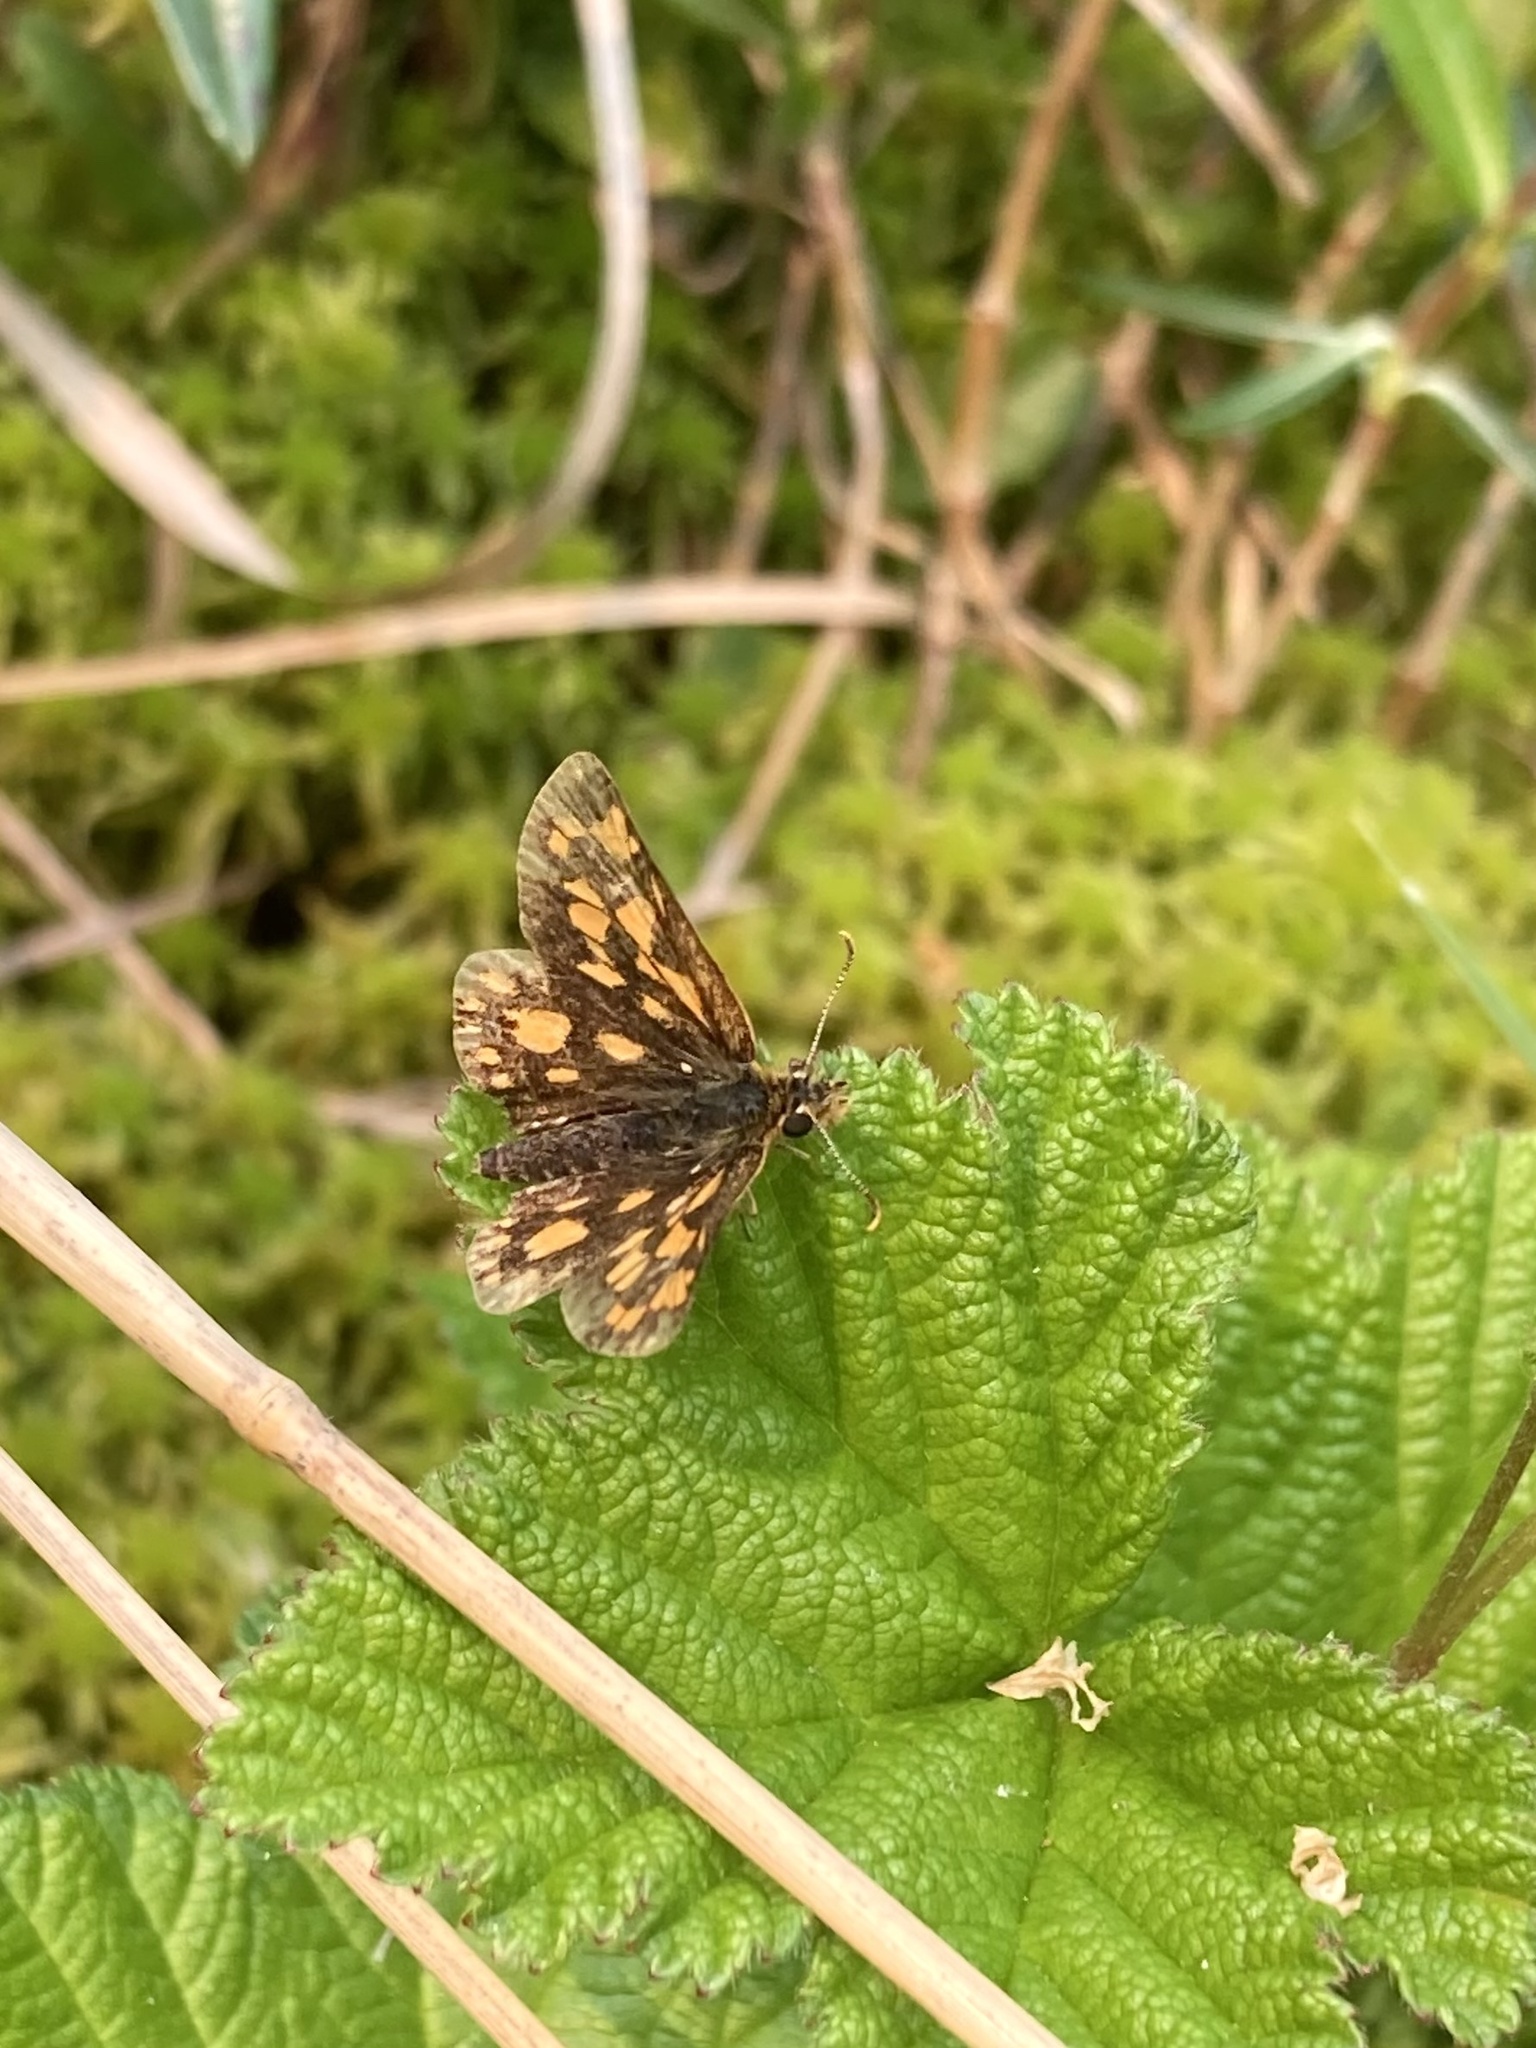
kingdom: Animalia
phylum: Arthropoda
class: Insecta
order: Lepidoptera
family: Hesperiidae
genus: Carterocephalus
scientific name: Carterocephalus mandan
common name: Arctic skipperling
